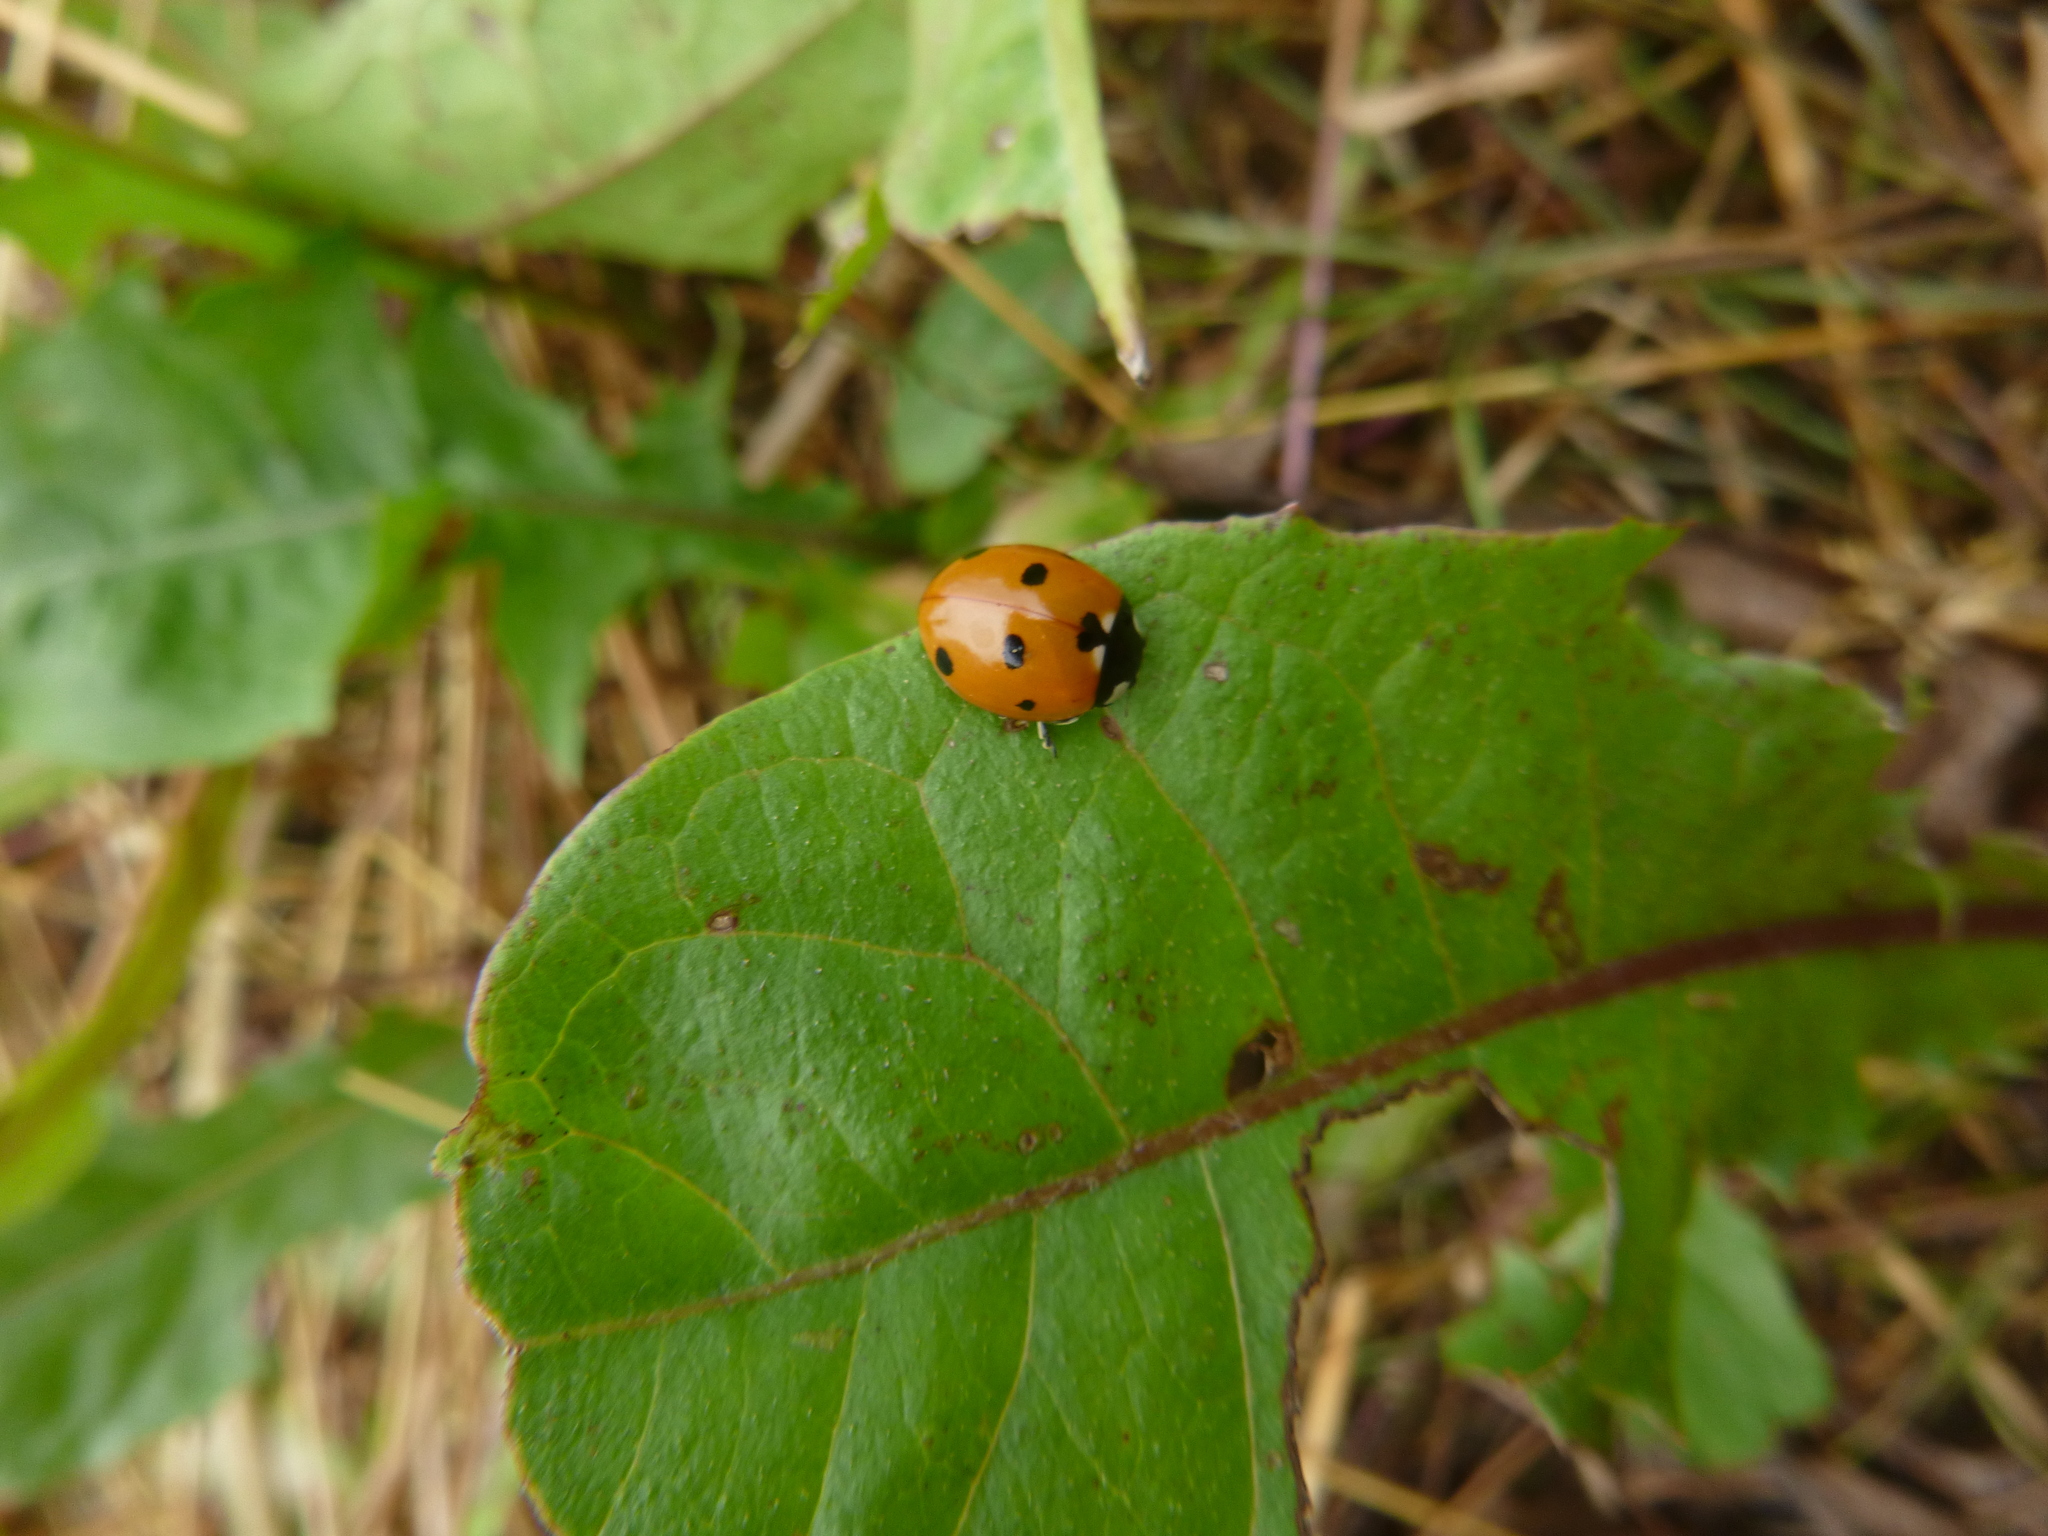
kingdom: Animalia
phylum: Arthropoda
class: Insecta
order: Coleoptera
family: Coccinellidae
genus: Coccinella
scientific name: Coccinella septempunctata
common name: Sevenspotted lady beetle
